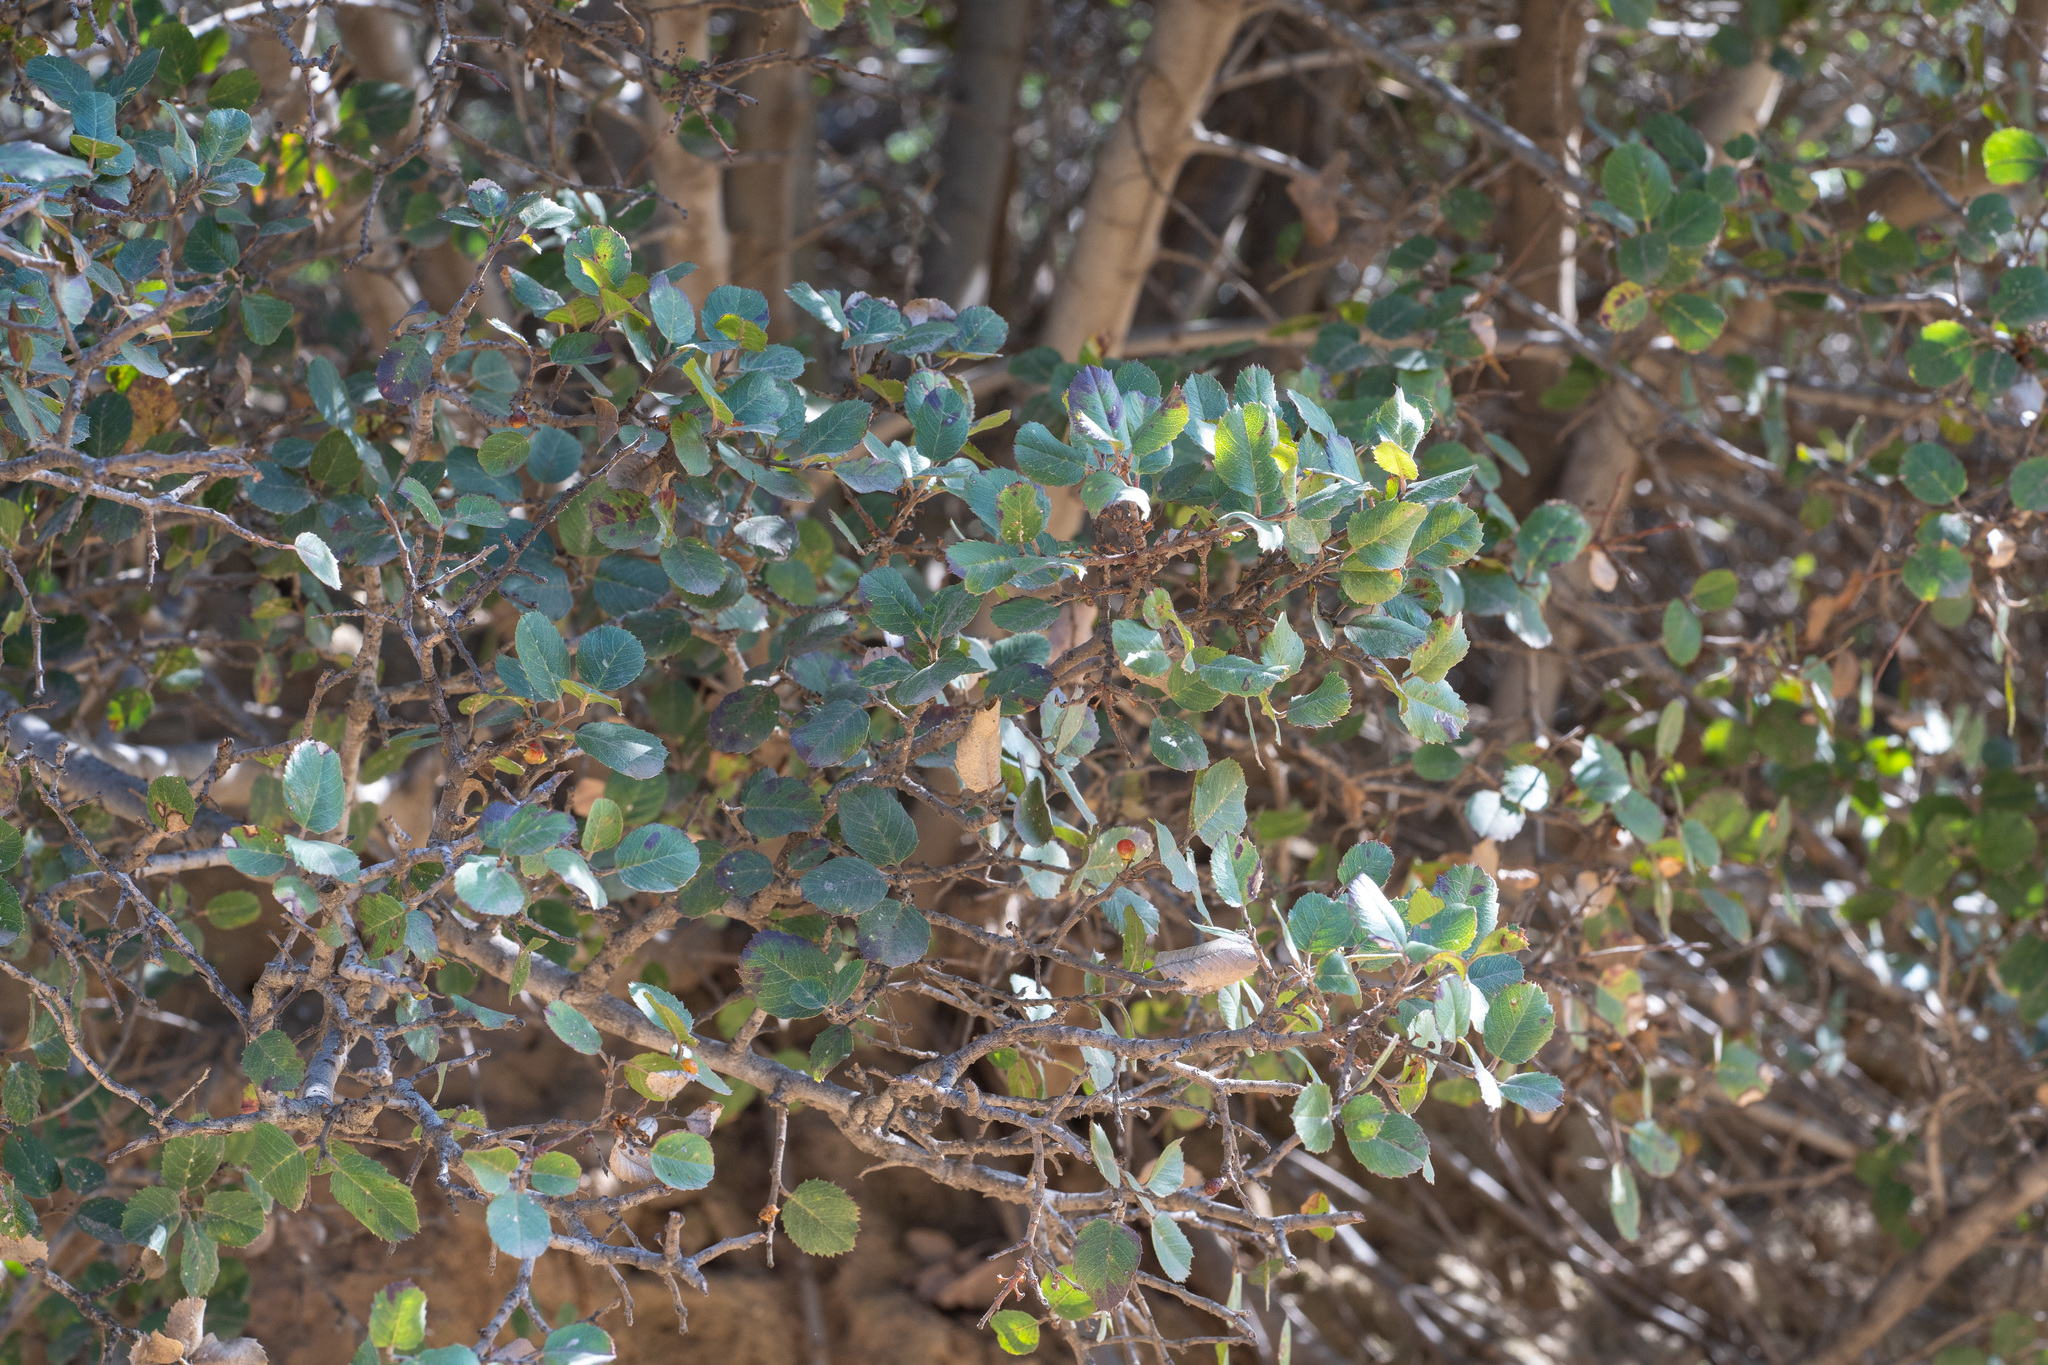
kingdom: Plantae
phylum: Tracheophyta
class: Magnoliopsida
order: Rosales
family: Rhamnaceae
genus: Endotropis
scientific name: Endotropis crocea
